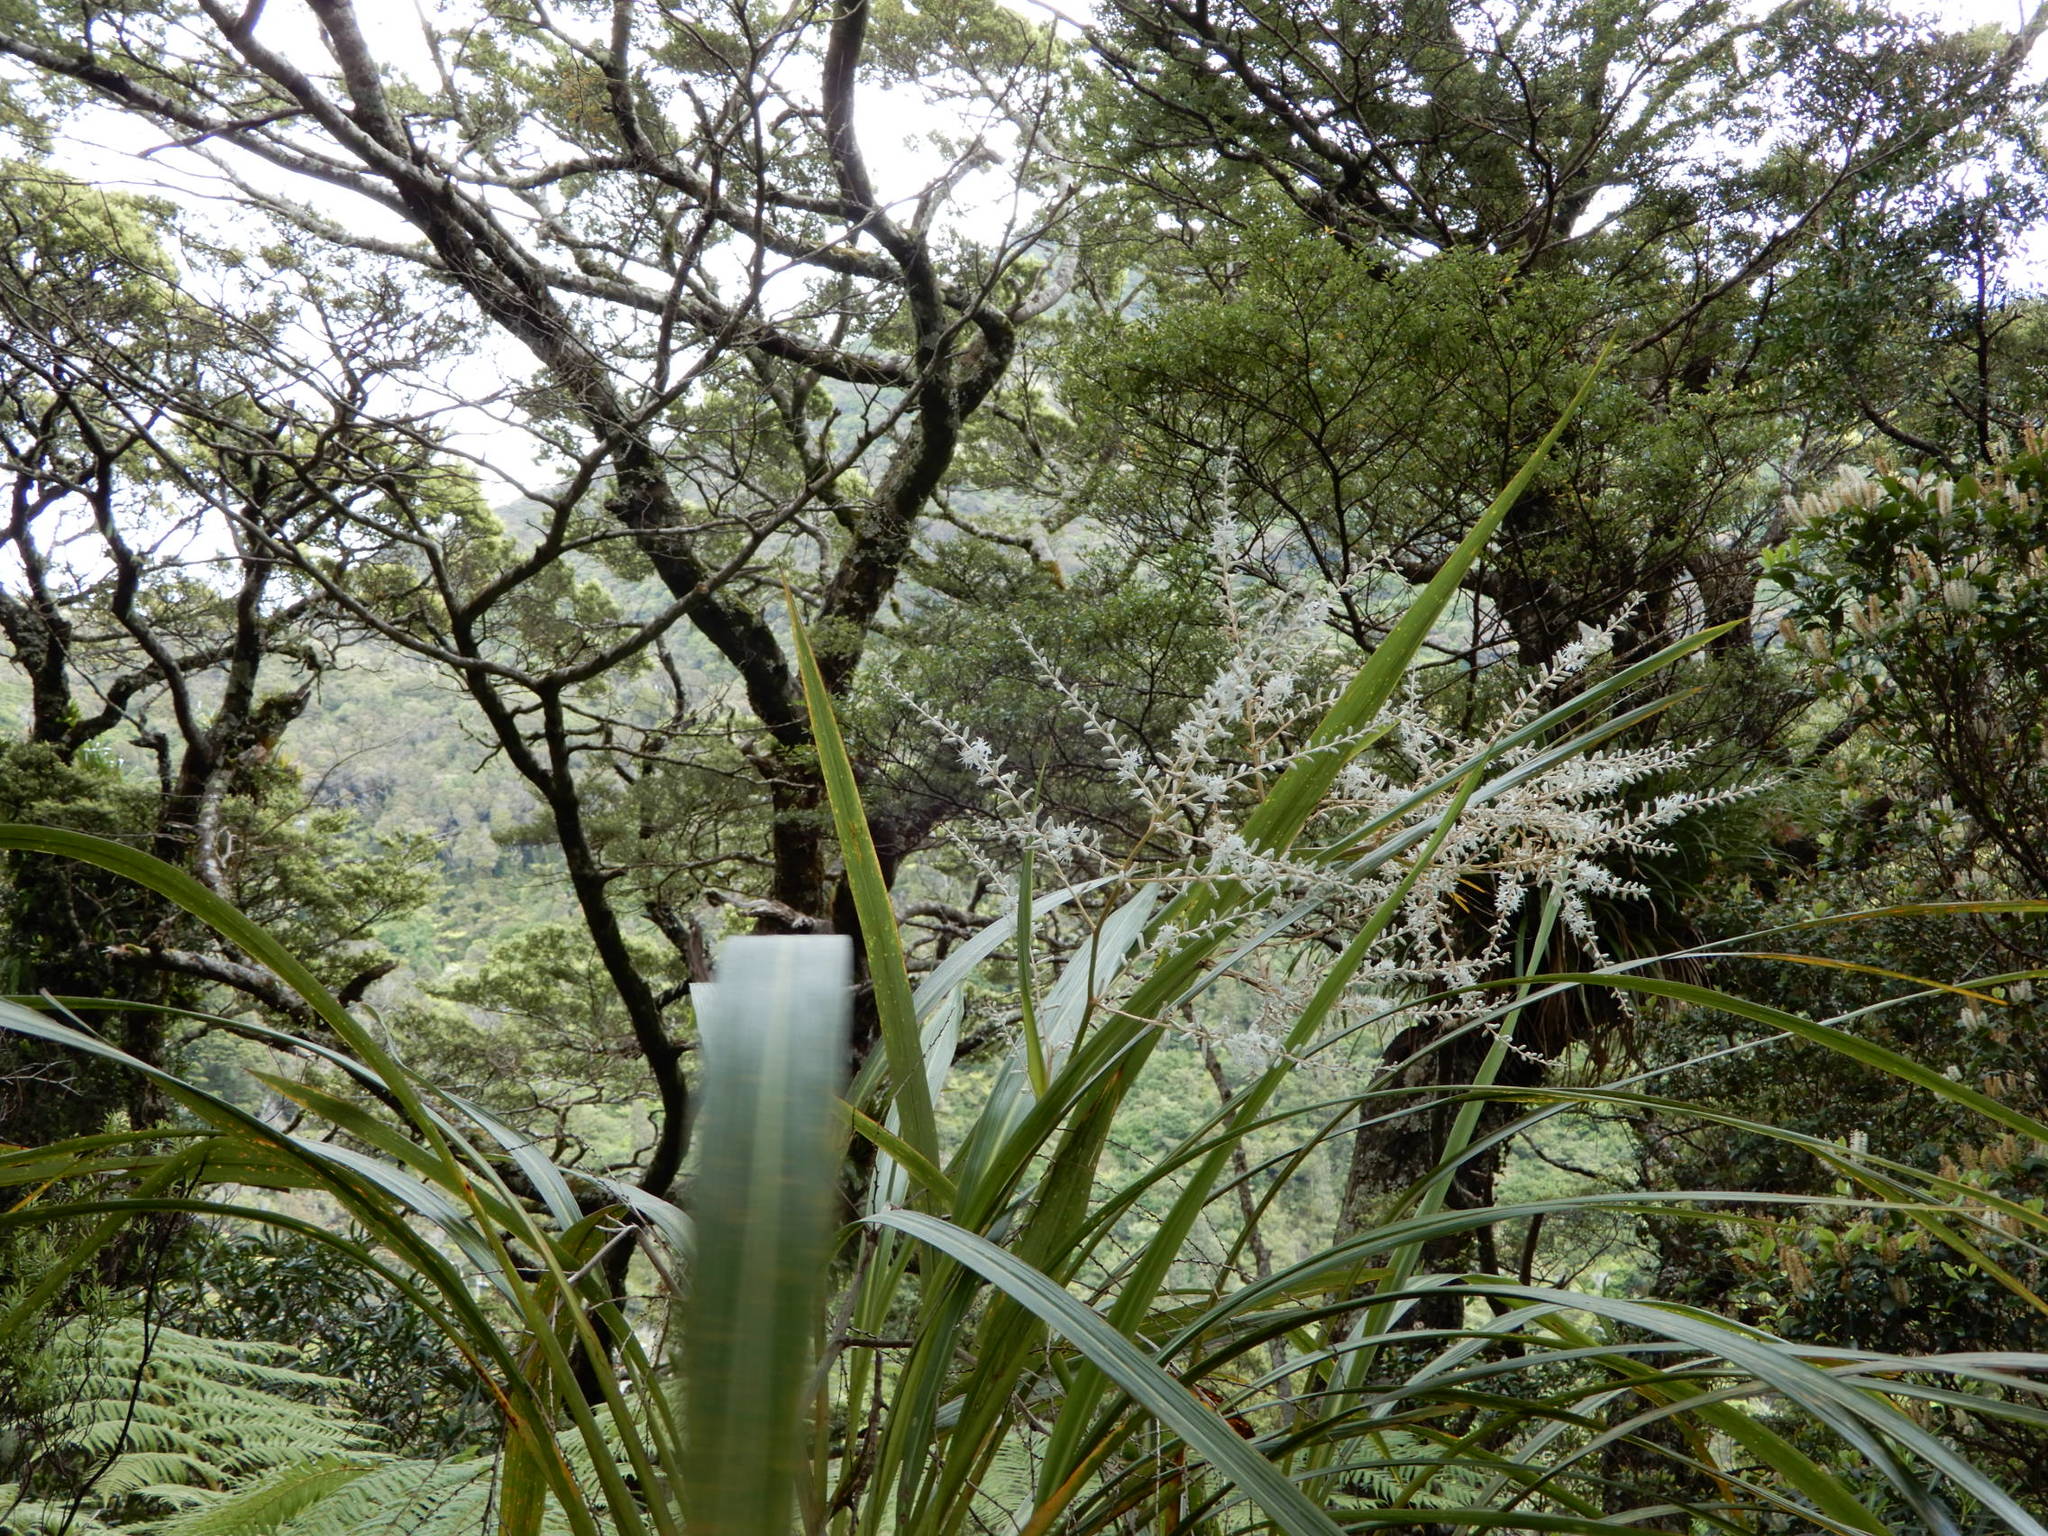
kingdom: Plantae
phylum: Tracheophyta
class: Liliopsida
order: Asparagales
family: Asparagaceae
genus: Cordyline
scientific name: Cordyline banksii
